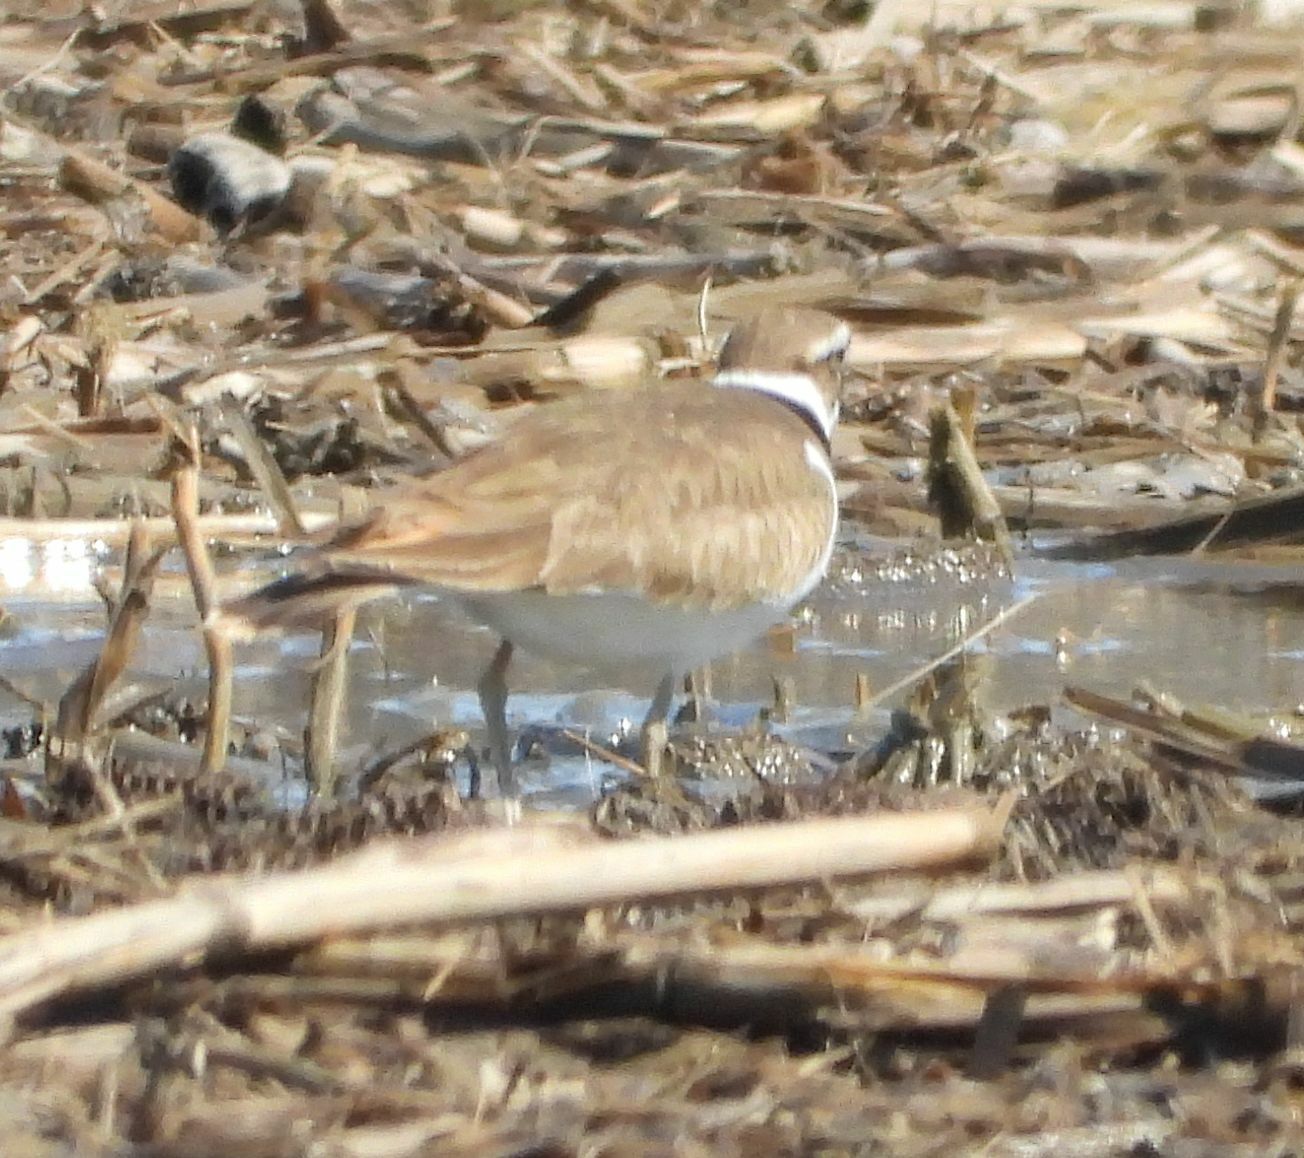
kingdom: Animalia
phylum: Chordata
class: Aves
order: Charadriiformes
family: Charadriidae
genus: Charadrius
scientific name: Charadrius vociferus
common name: Killdeer
